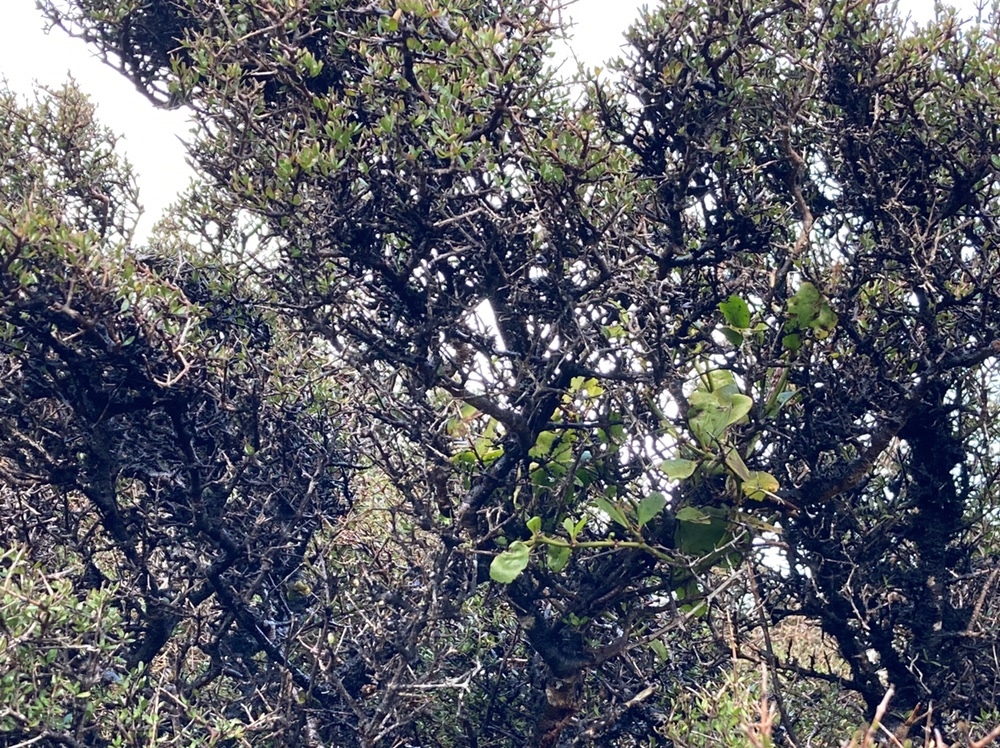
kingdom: Plantae
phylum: Tracheophyta
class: Magnoliopsida
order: Gentianales
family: Rubiaceae
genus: Coprosma
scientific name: Coprosma propinqua
